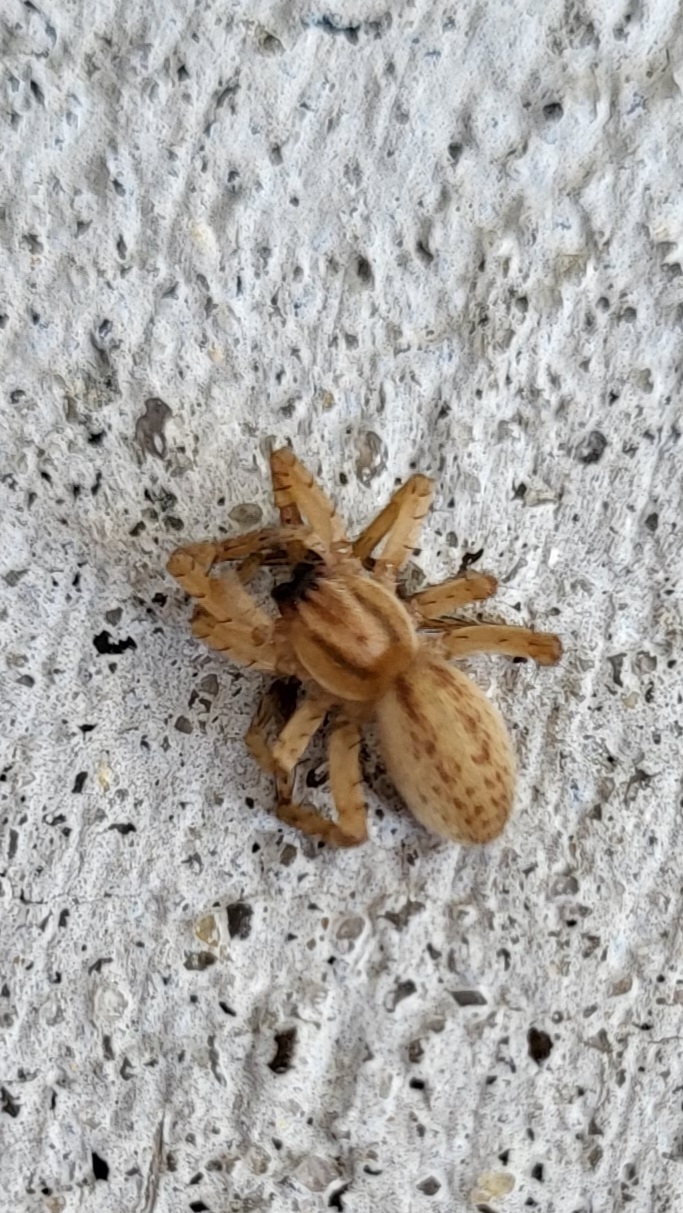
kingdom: Animalia
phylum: Arthropoda
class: Arachnida
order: Araneae
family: Anyphaenidae
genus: Hibana
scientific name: Hibana gracilis
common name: Garden ghost spider
